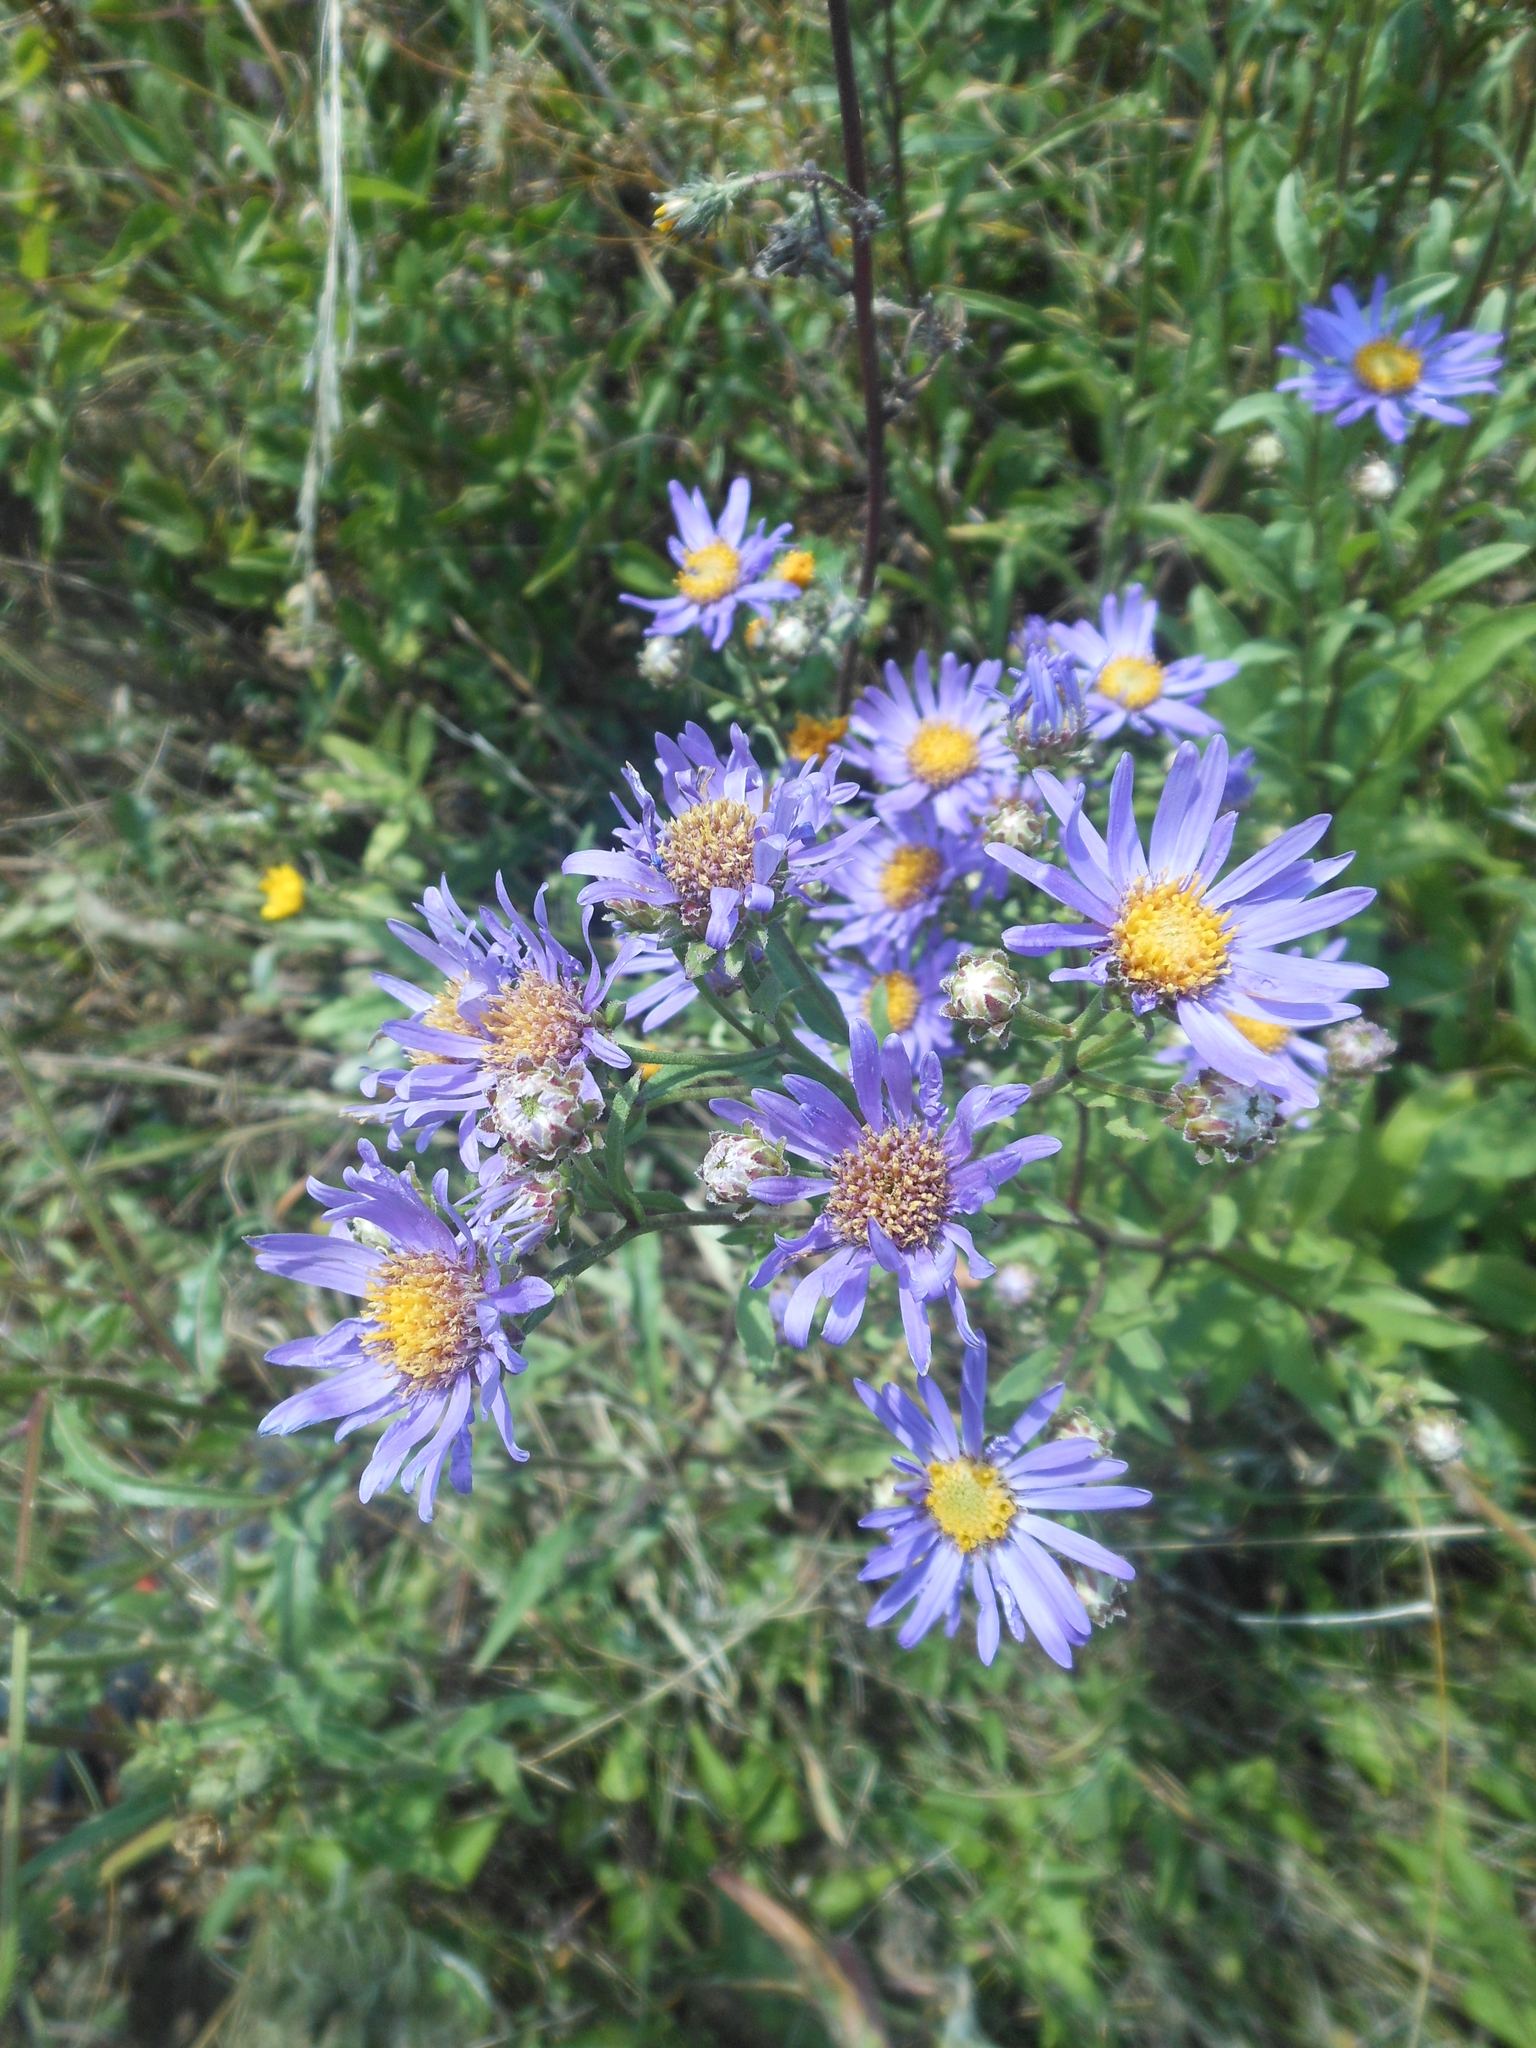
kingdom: Plantae
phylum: Tracheophyta
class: Magnoliopsida
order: Asterales
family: Asteraceae
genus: Aster
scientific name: Aster amellus
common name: European michaelmas daisy
